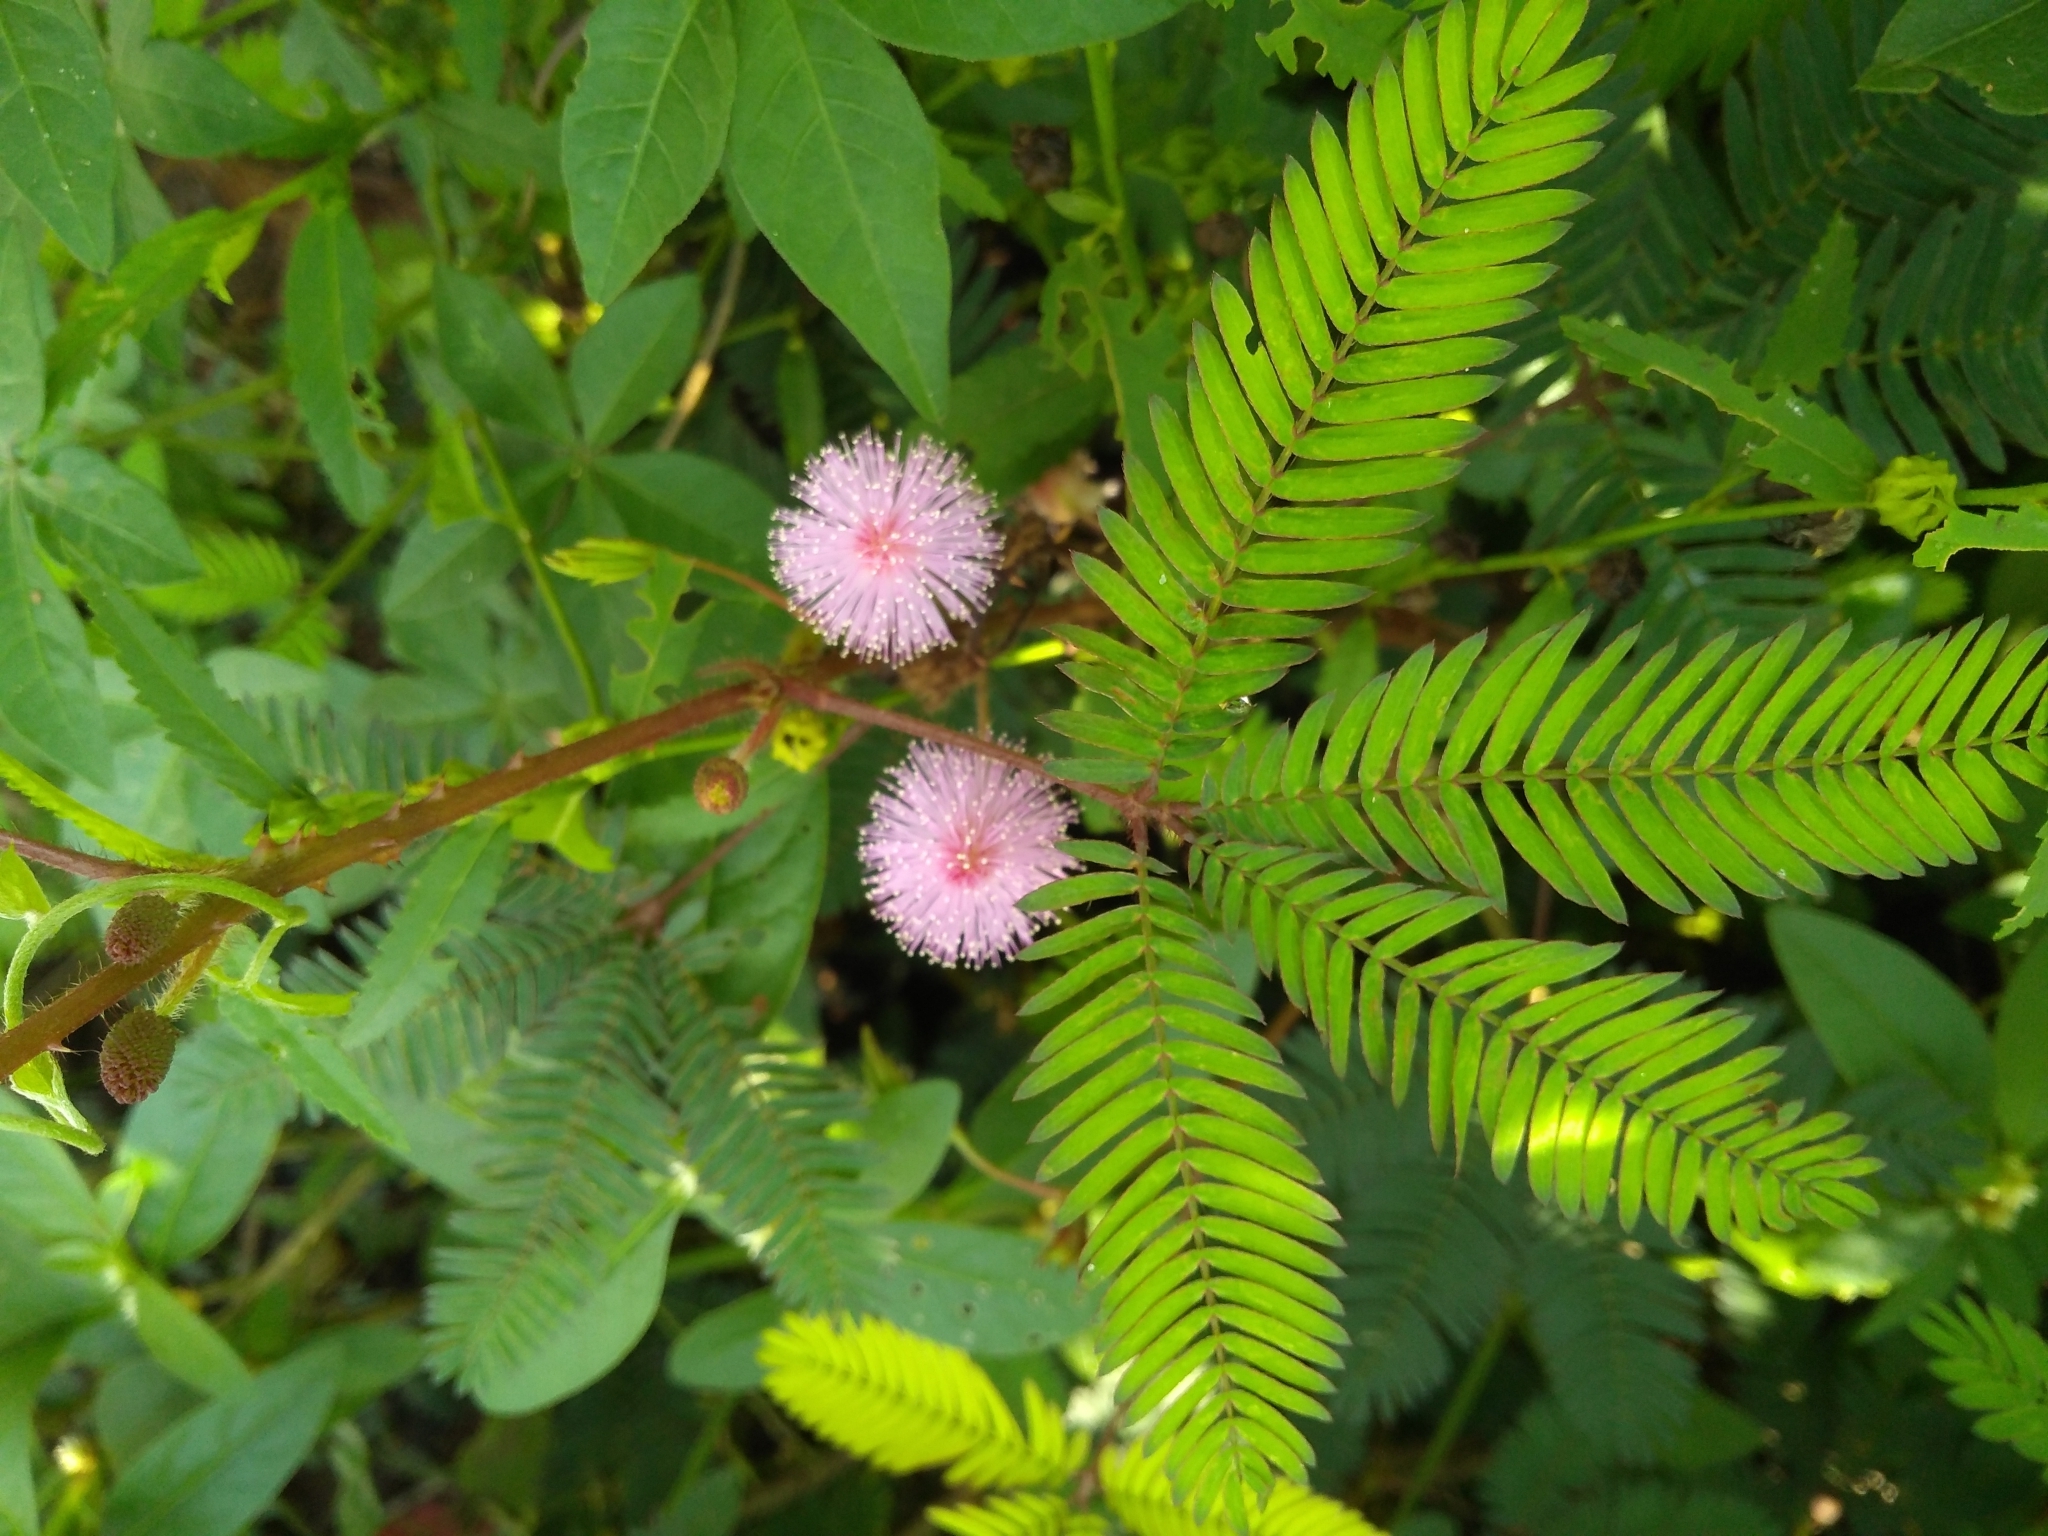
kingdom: Plantae
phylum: Tracheophyta
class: Magnoliopsida
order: Fabales
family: Fabaceae
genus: Mimosa
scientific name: Mimosa pudica
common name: Sensitive plant
